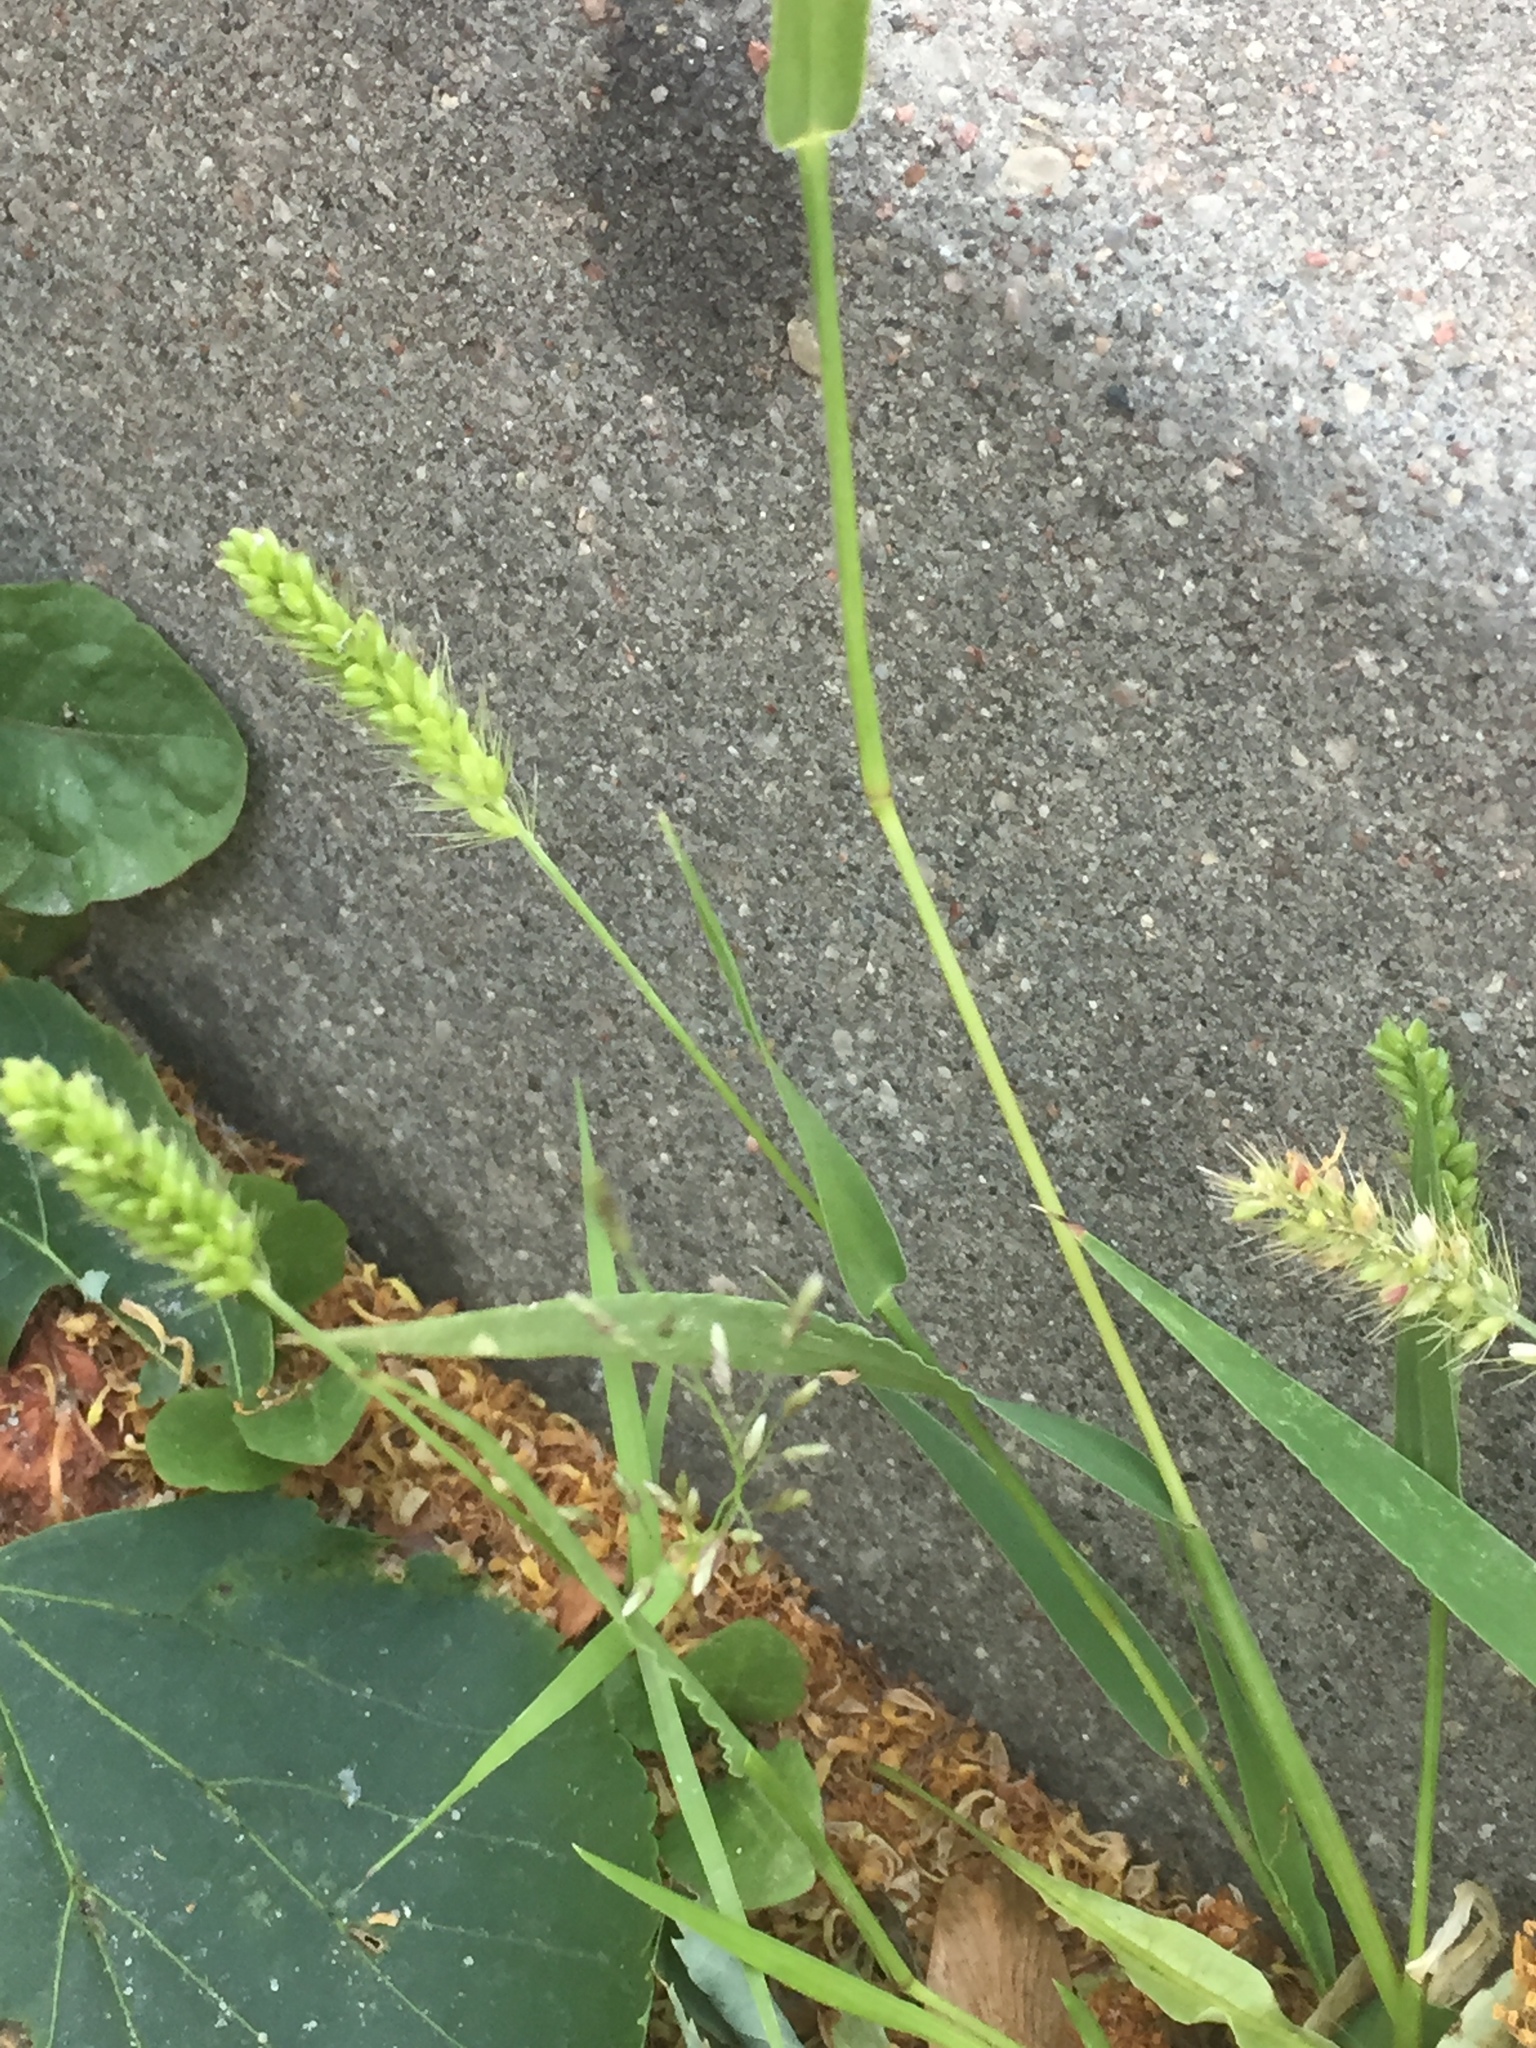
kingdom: Plantae
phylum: Tracheophyta
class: Liliopsida
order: Poales
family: Poaceae
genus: Setaria
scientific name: Setaria viridis
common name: Green bristlegrass
